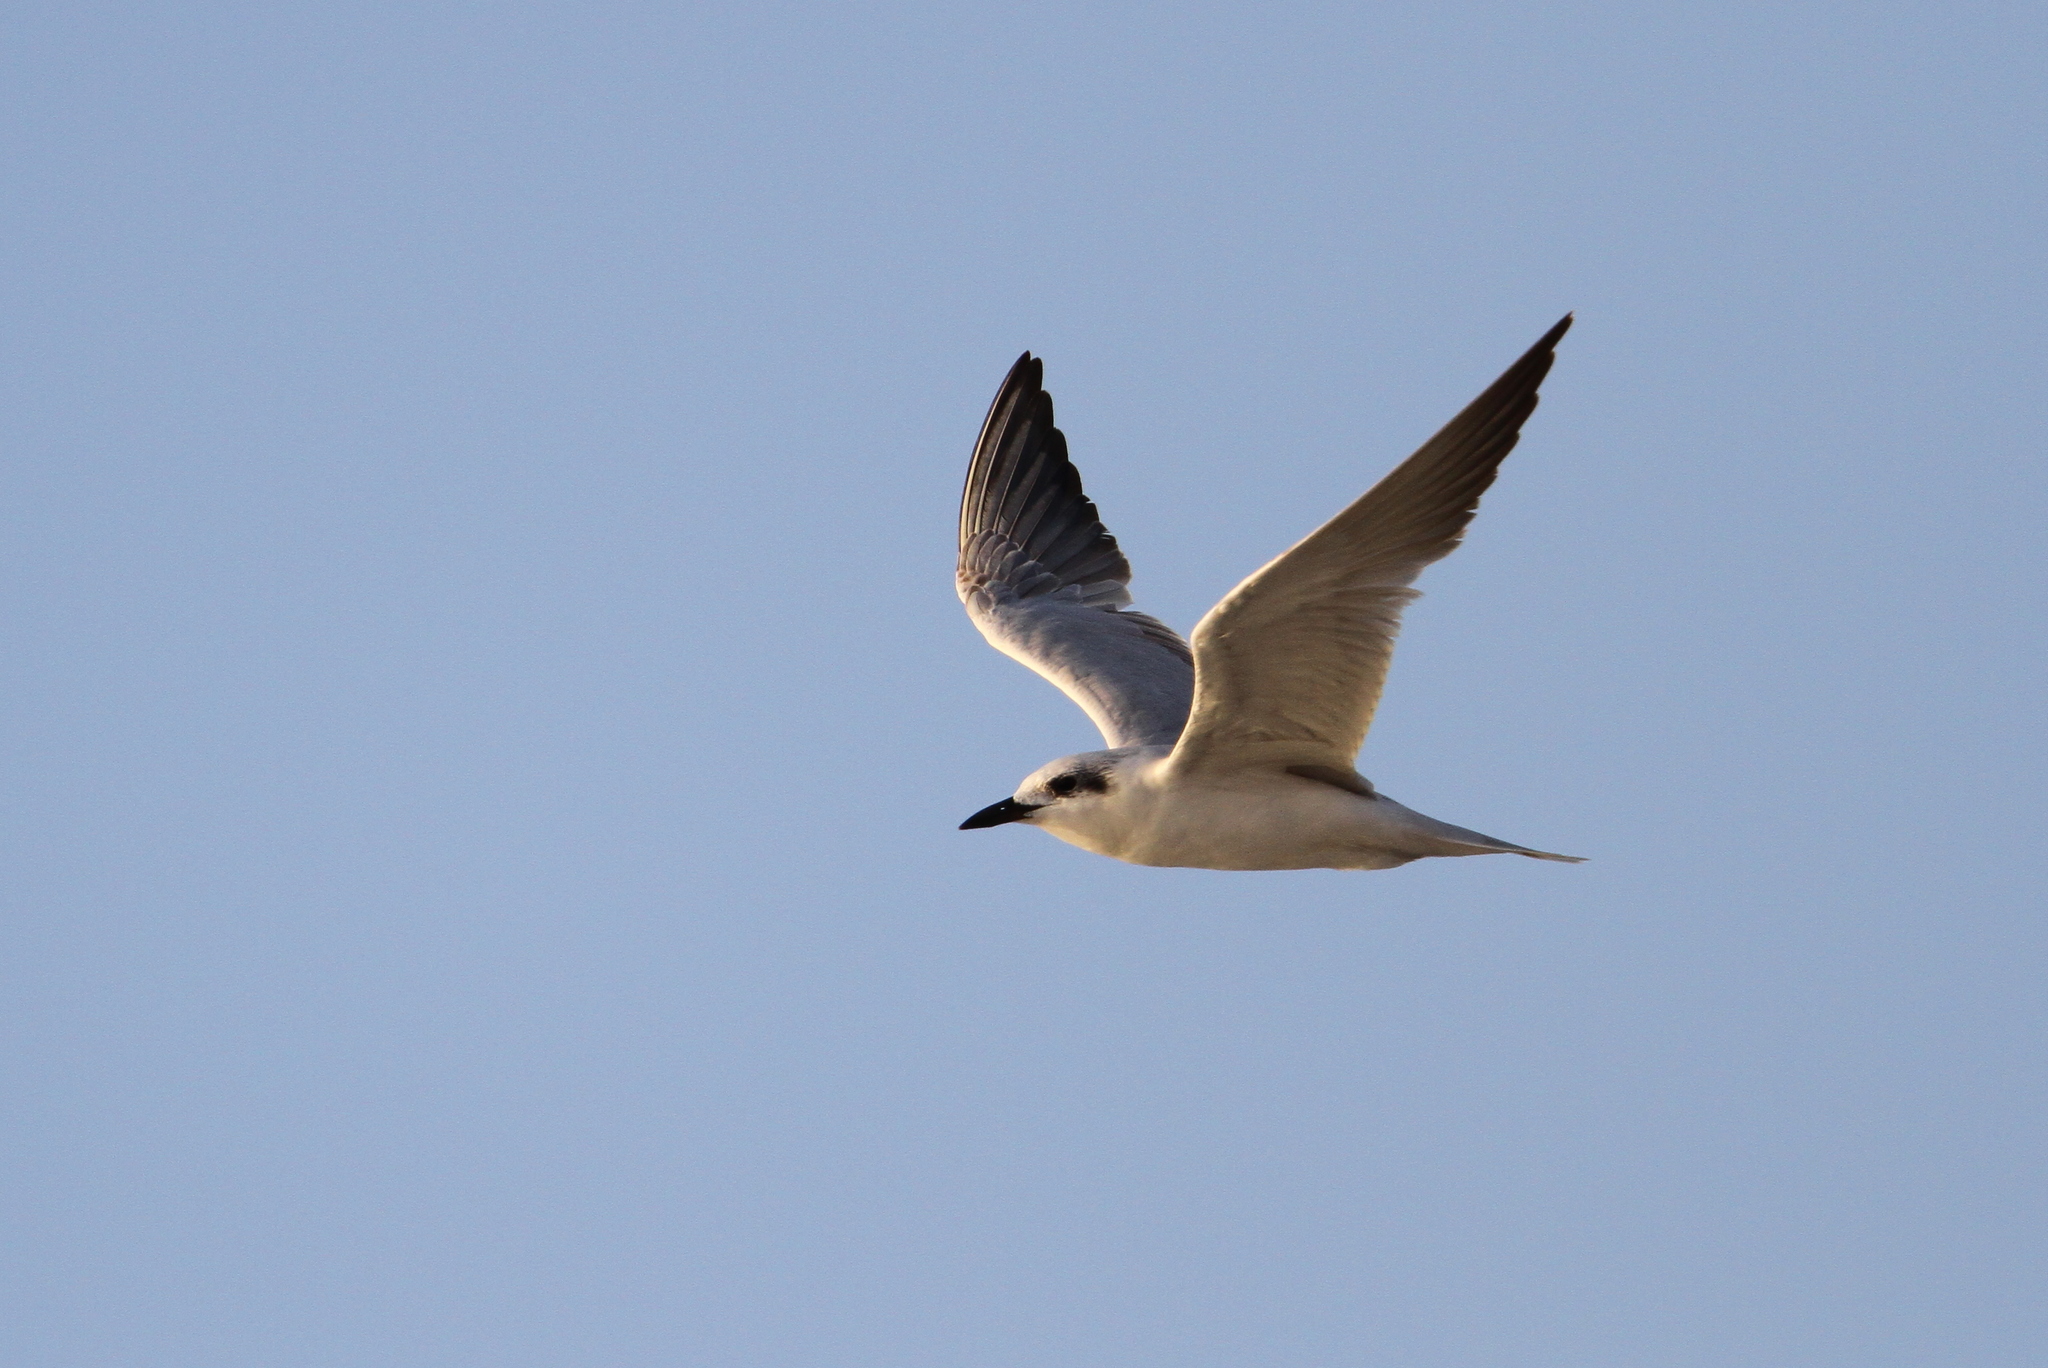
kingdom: Animalia
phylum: Chordata
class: Aves
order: Charadriiformes
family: Laridae
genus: Gelochelidon
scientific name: Gelochelidon nilotica
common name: Gull-billed tern
